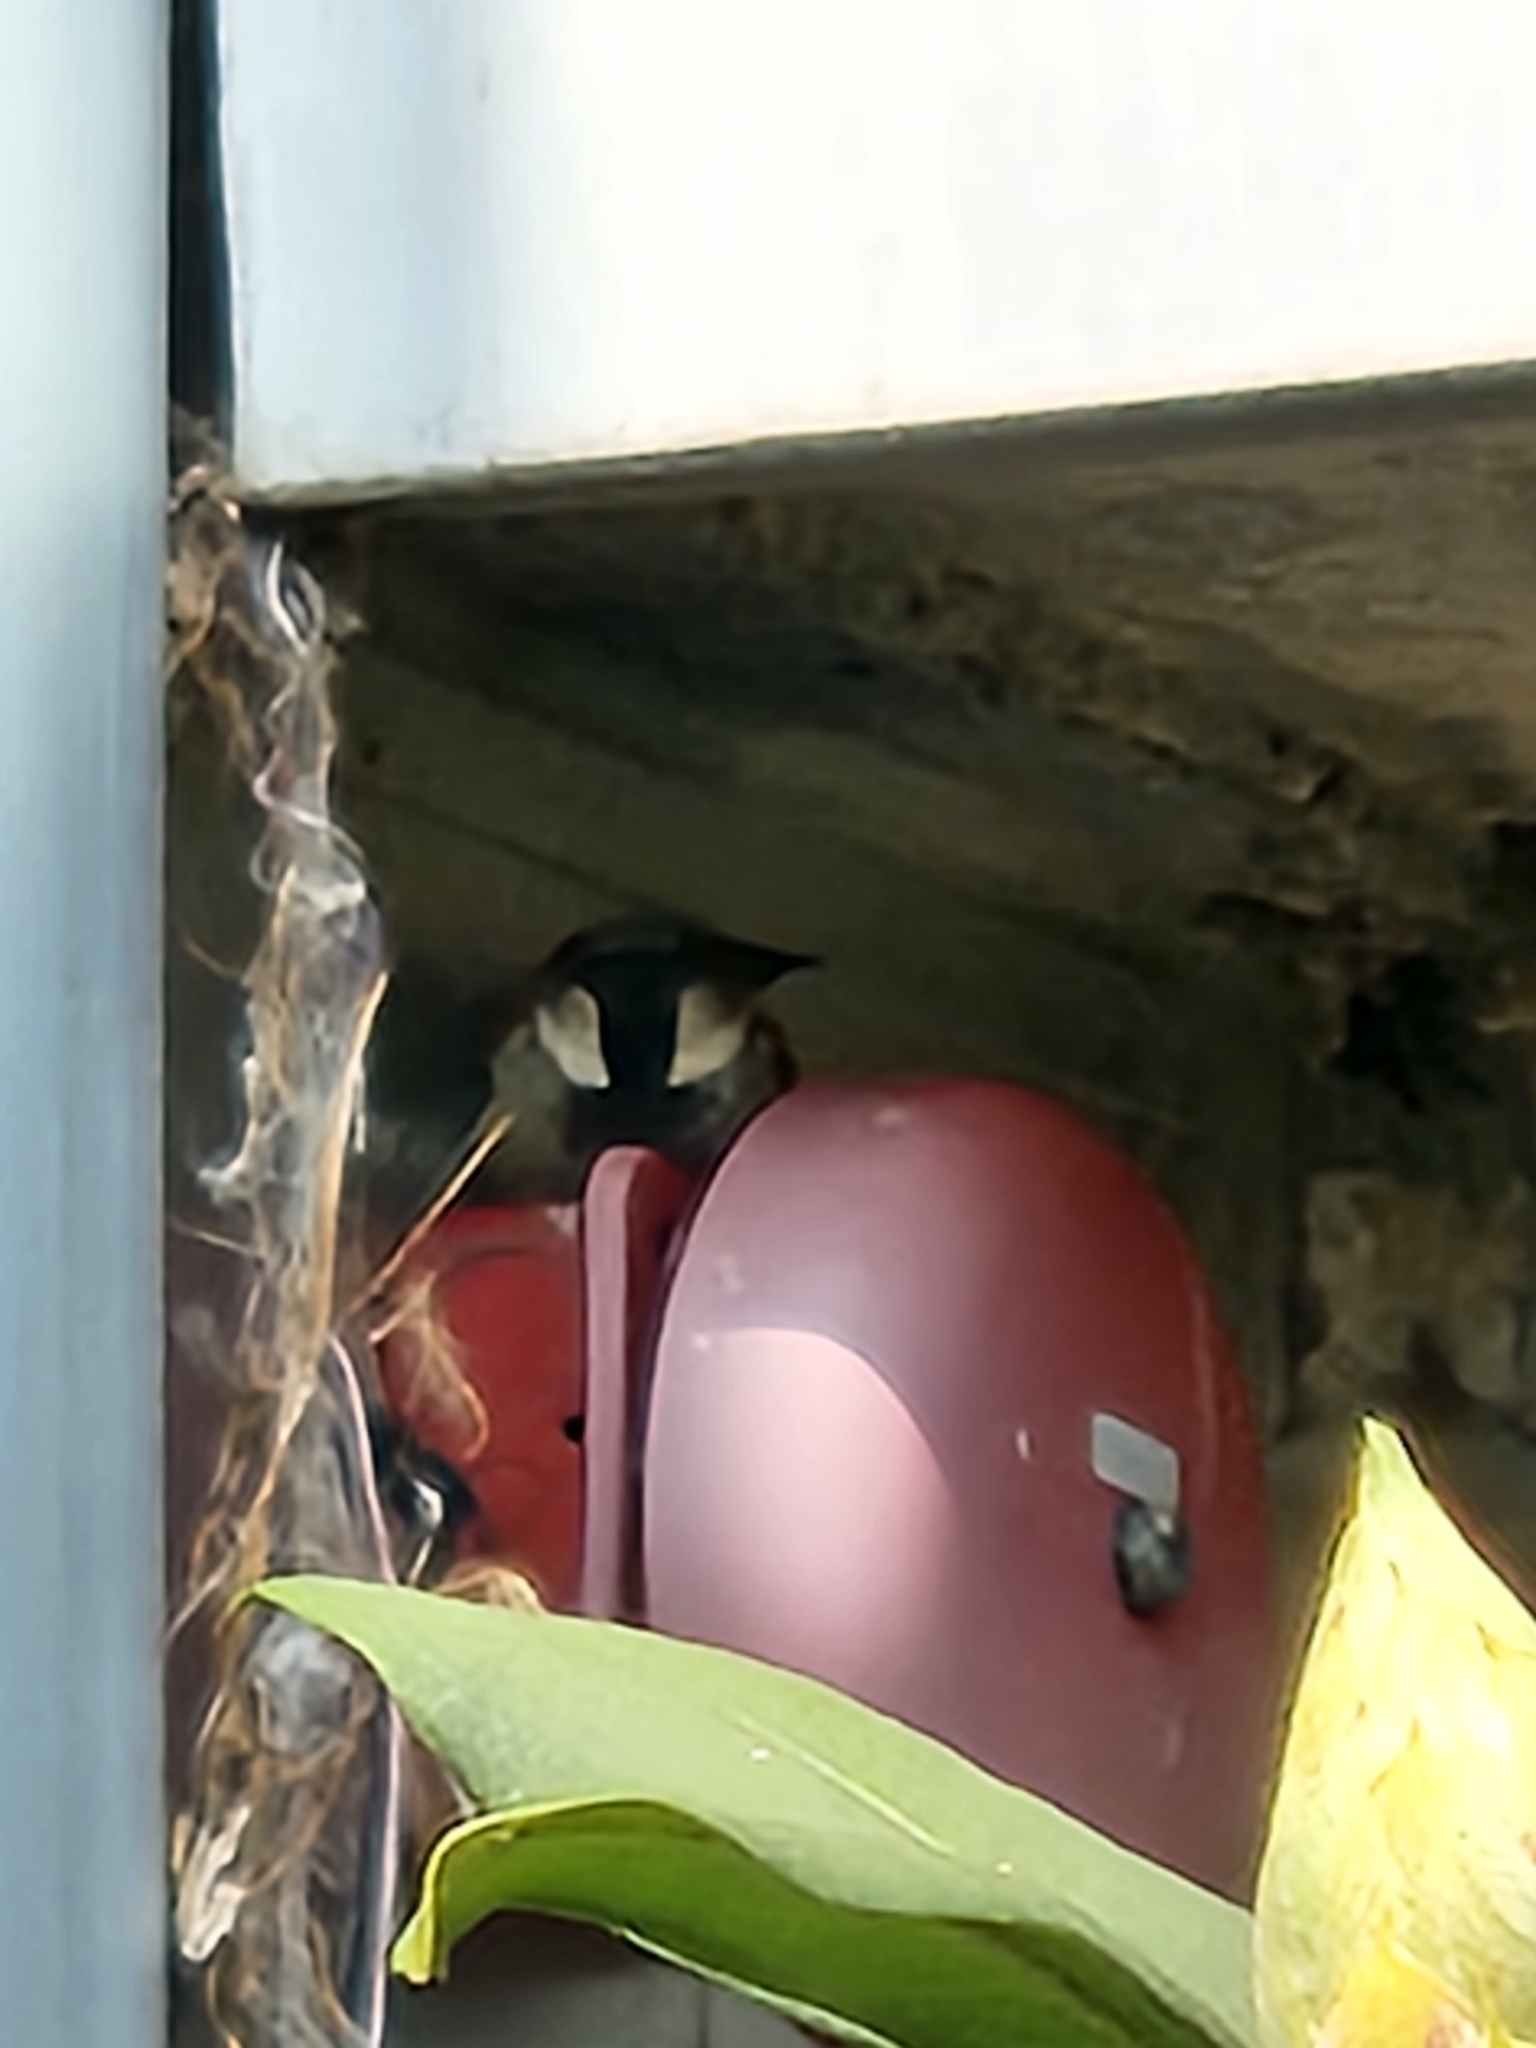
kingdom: Animalia
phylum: Chordata
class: Aves
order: Passeriformes
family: Passeridae
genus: Passer
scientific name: Passer domesticus
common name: House sparrow
